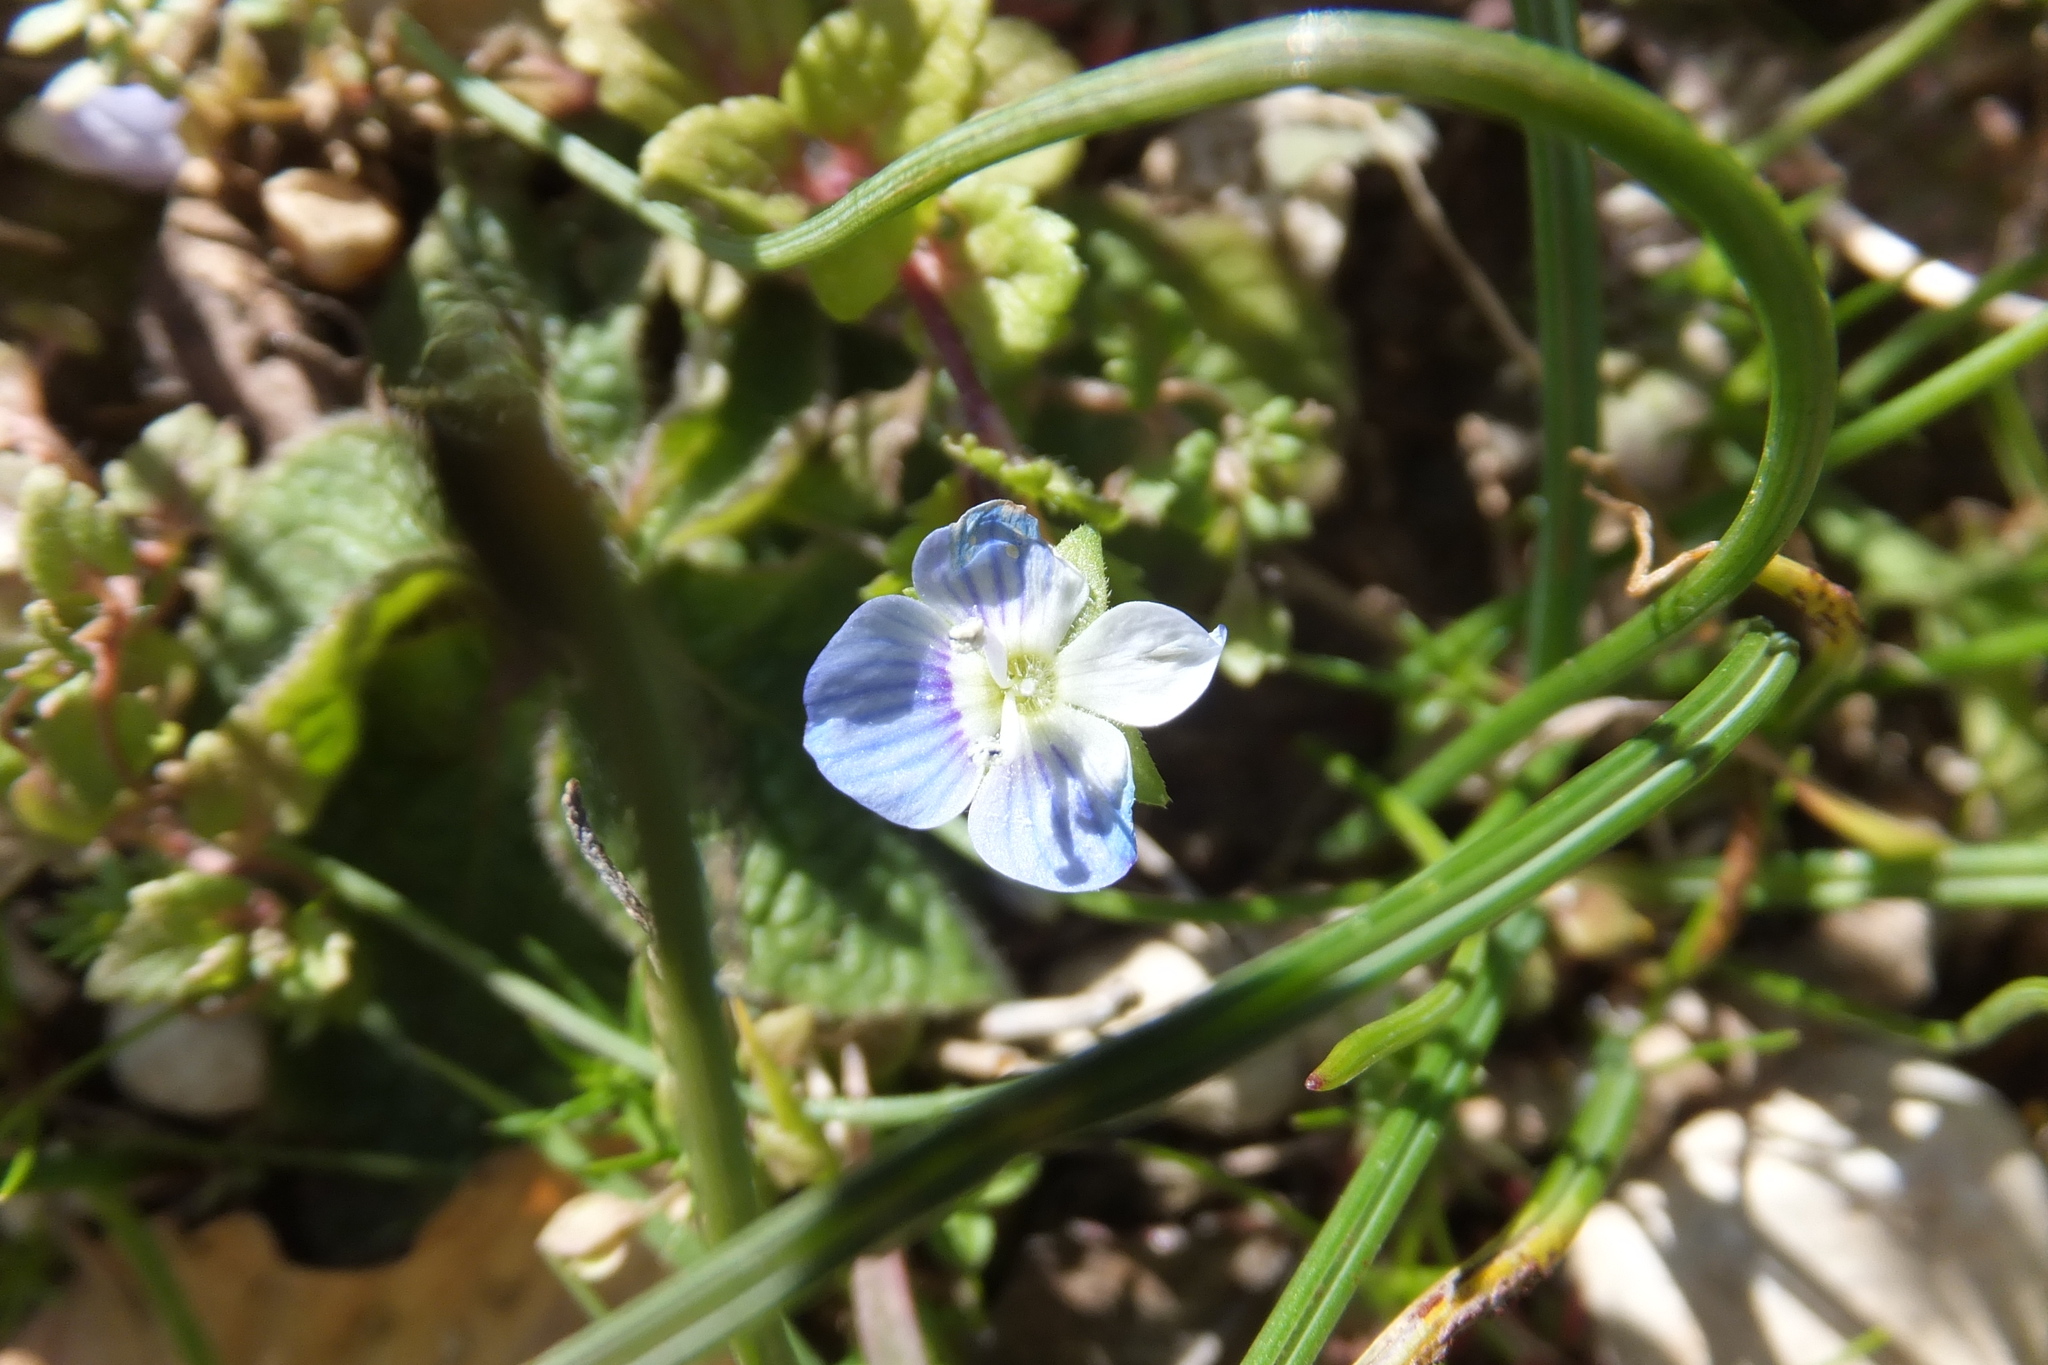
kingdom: Plantae
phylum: Tracheophyta
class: Magnoliopsida
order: Lamiales
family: Plantaginaceae
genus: Veronica
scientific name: Veronica persica
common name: Common field-speedwell
